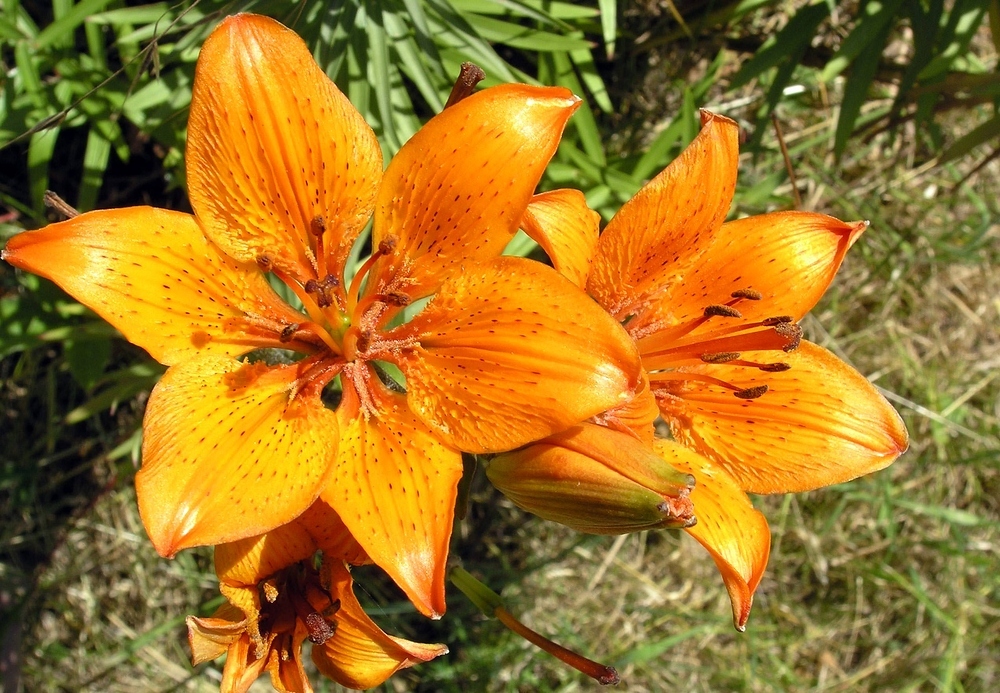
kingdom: Plantae
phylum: Tracheophyta
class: Liliopsida
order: Liliales
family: Liliaceae
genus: Lilium
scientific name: Lilium bulbiferum
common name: Orange lily
